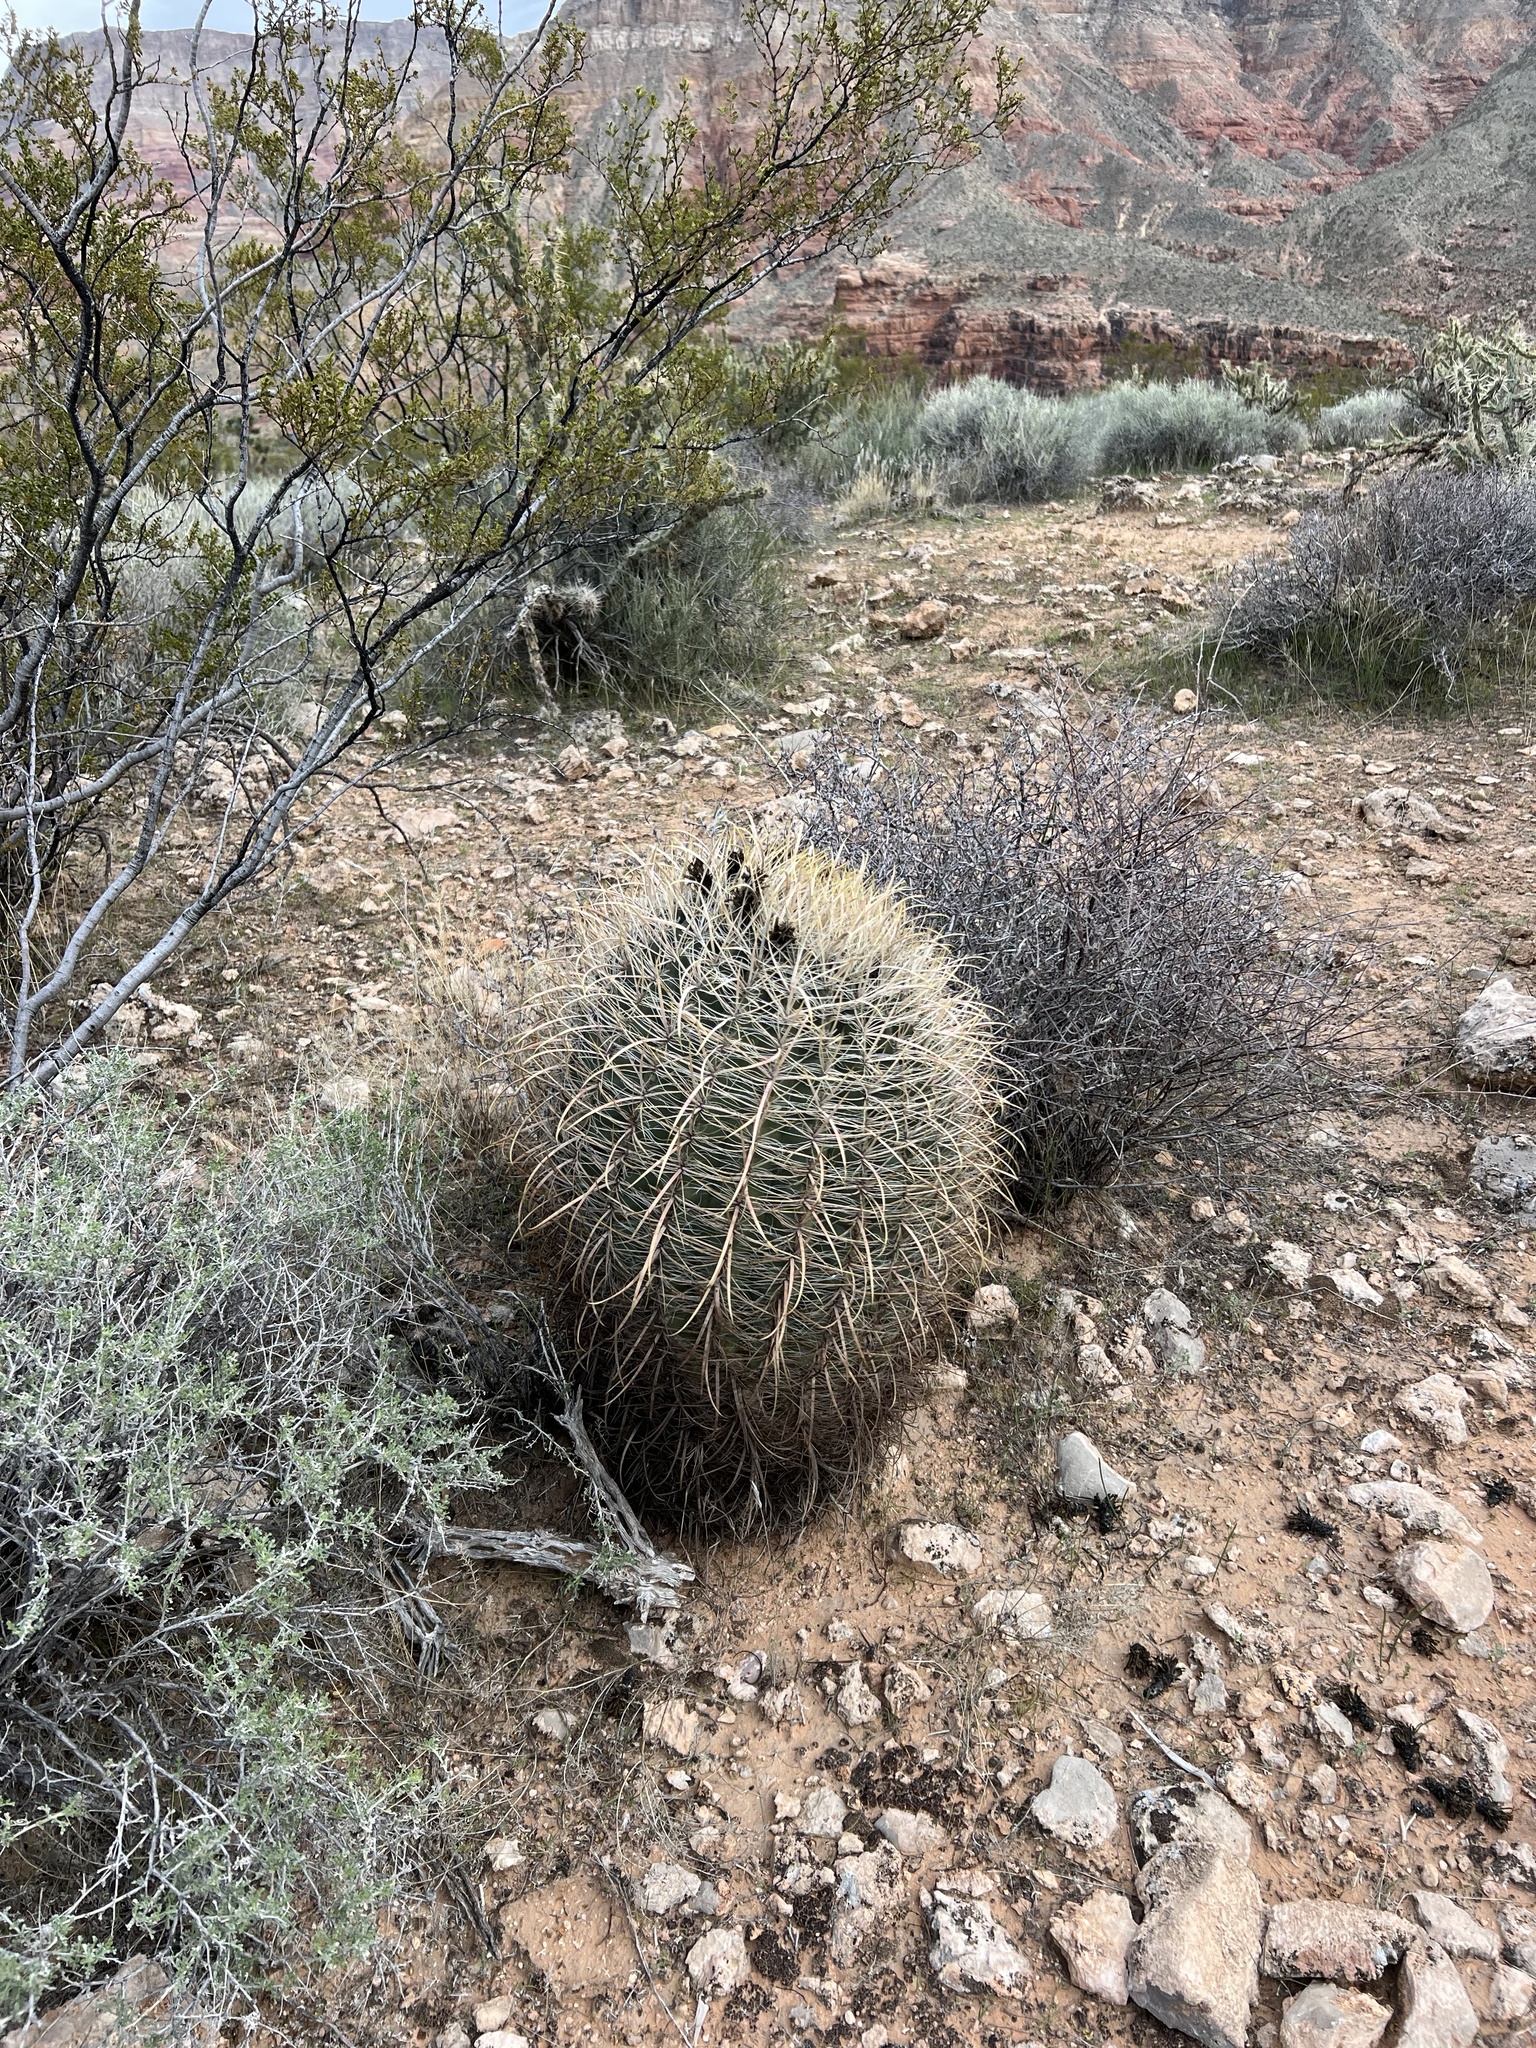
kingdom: Plantae
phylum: Tracheophyta
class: Magnoliopsida
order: Caryophyllales
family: Cactaceae
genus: Ferocactus
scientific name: Ferocactus cylindraceus
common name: California barrel cactus
